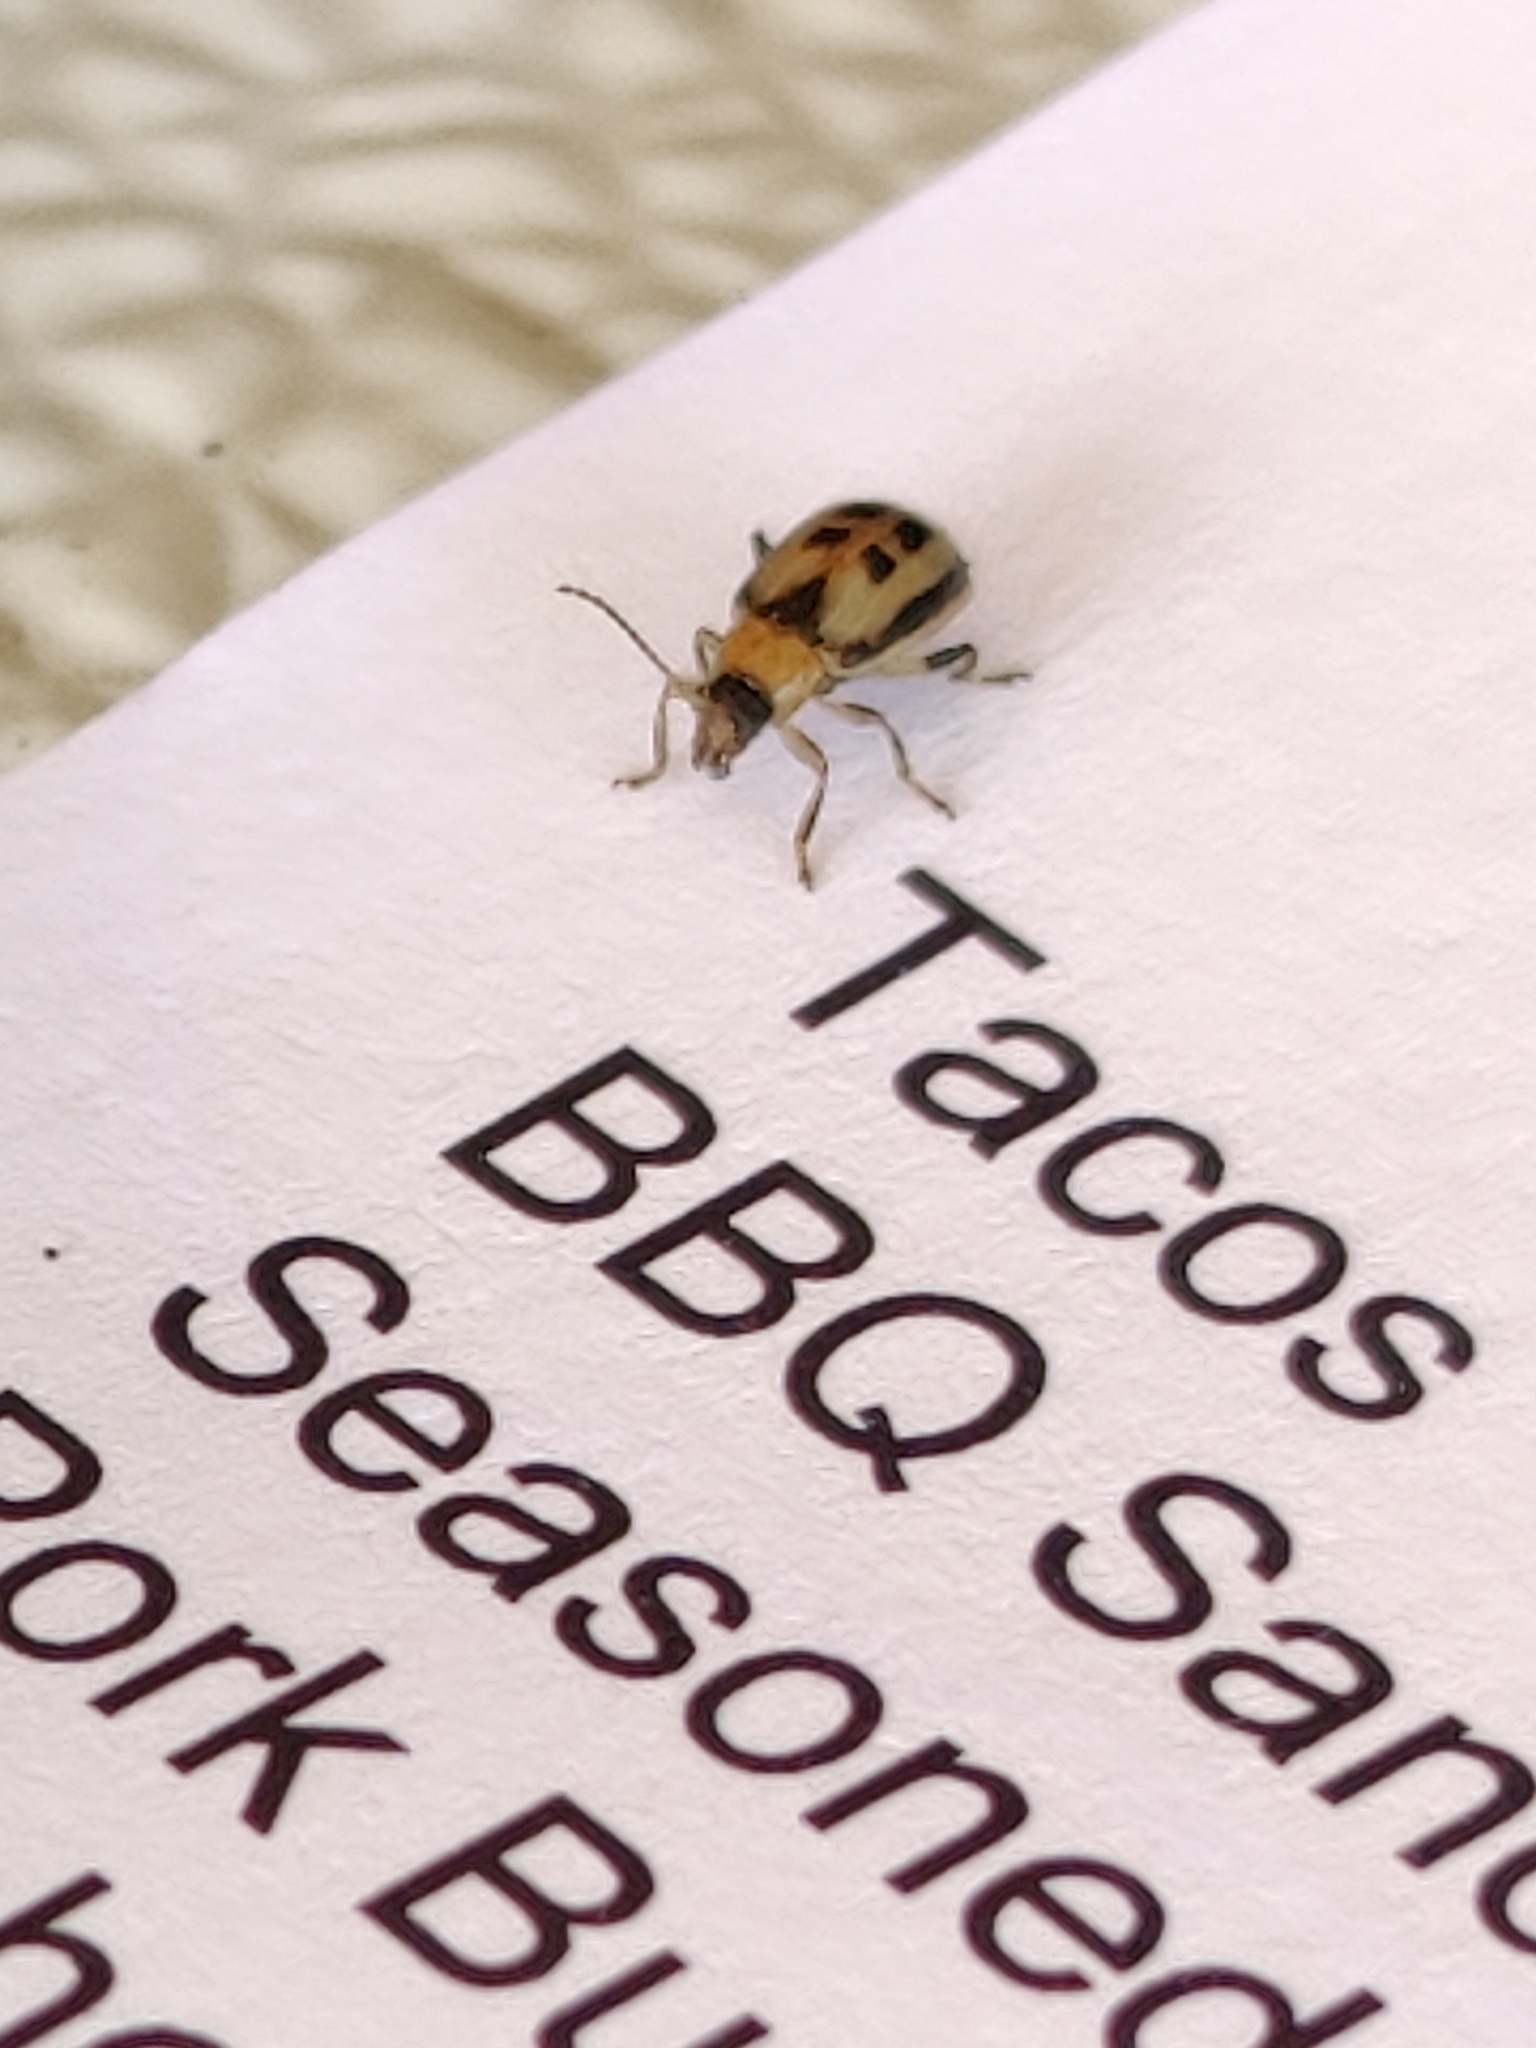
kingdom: Animalia
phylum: Arthropoda
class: Insecta
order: Coleoptera
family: Chrysomelidae
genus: Cerotoma
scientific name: Cerotoma trifurcata
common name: Bean leaf beetle
